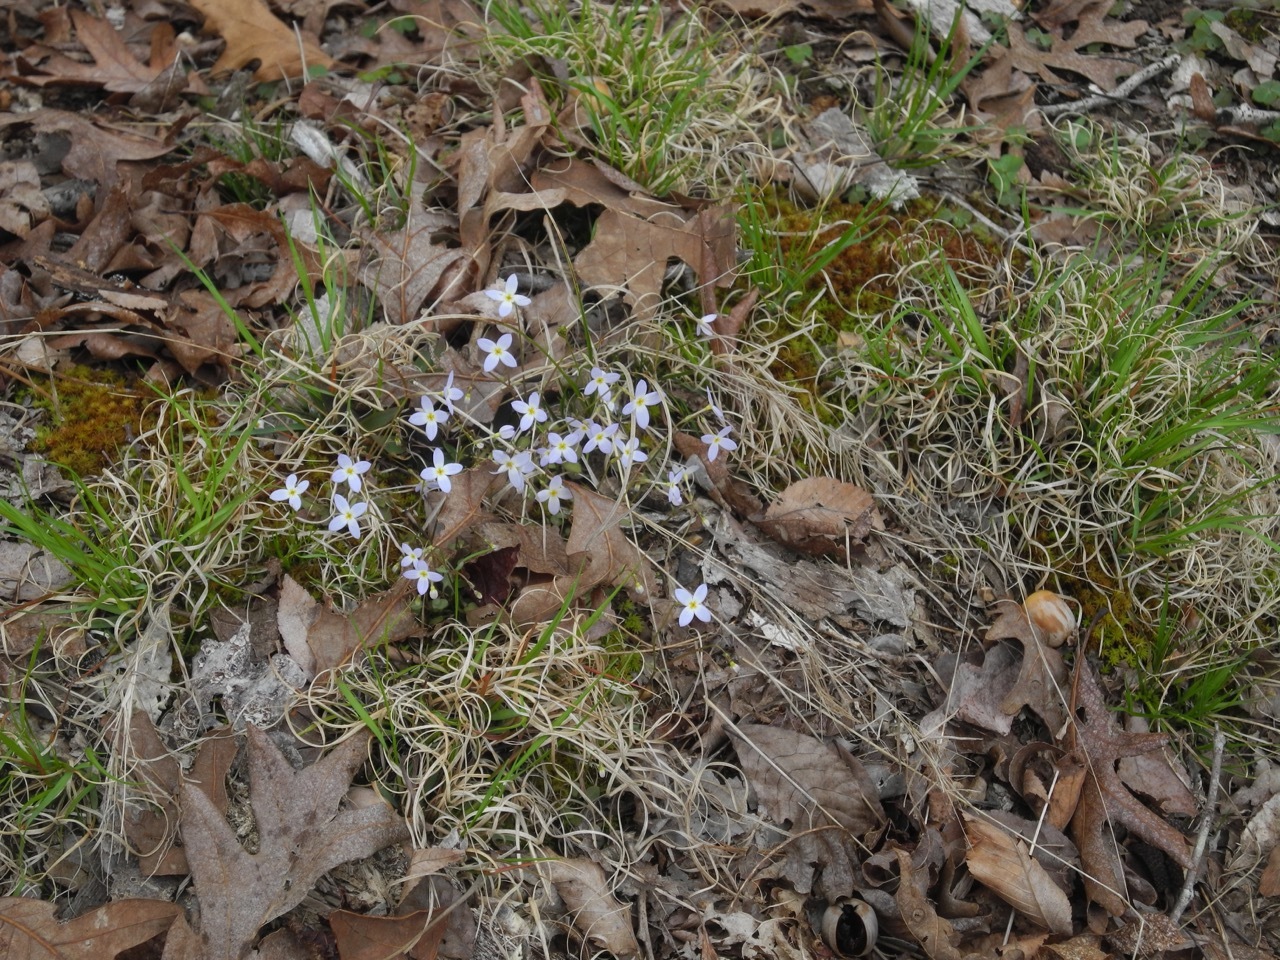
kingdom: Plantae
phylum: Tracheophyta
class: Liliopsida
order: Poales
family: Poaceae
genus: Danthonia
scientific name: Danthonia spicata
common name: Common wild oatgrass
